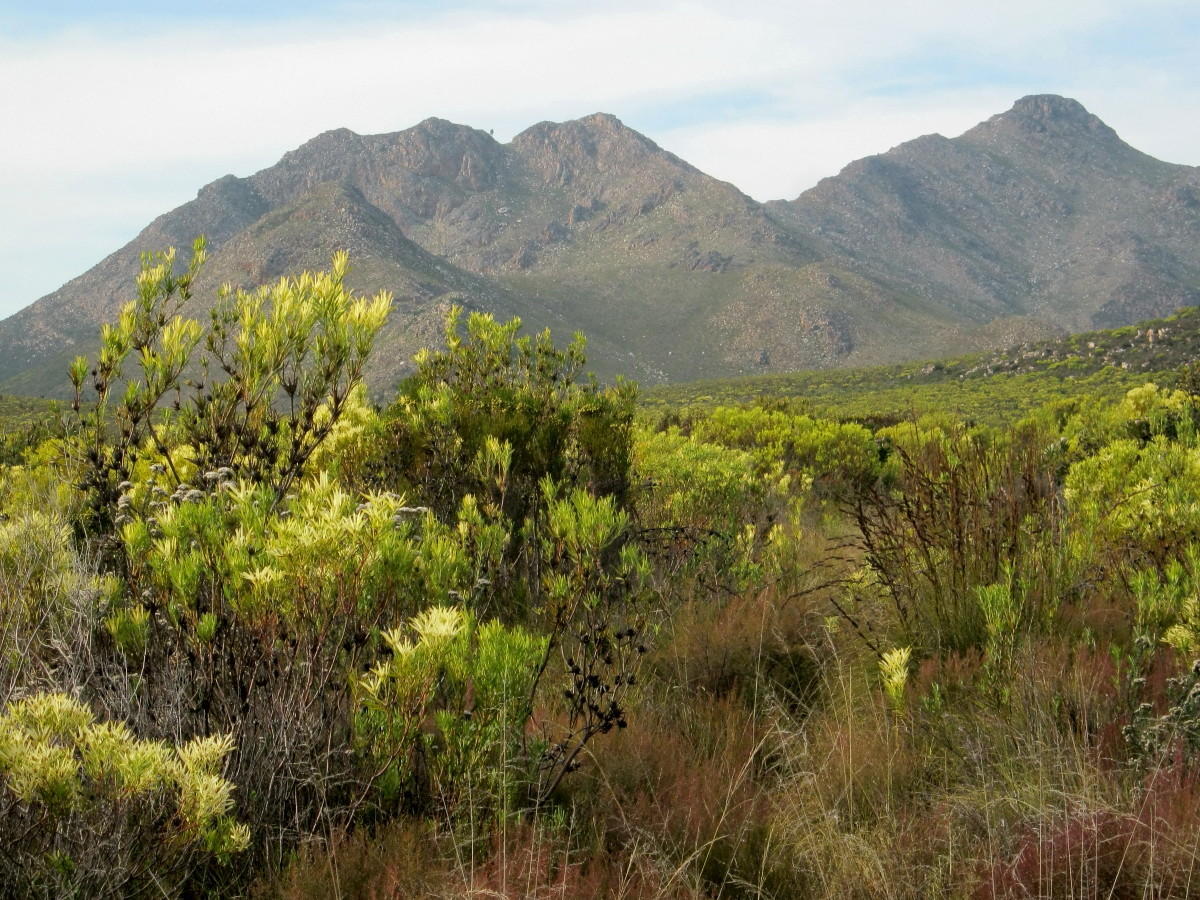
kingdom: Plantae
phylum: Tracheophyta
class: Magnoliopsida
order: Proteales
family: Proteaceae
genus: Leucadendron
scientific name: Leucadendron salignum
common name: Common sunshine conebush
